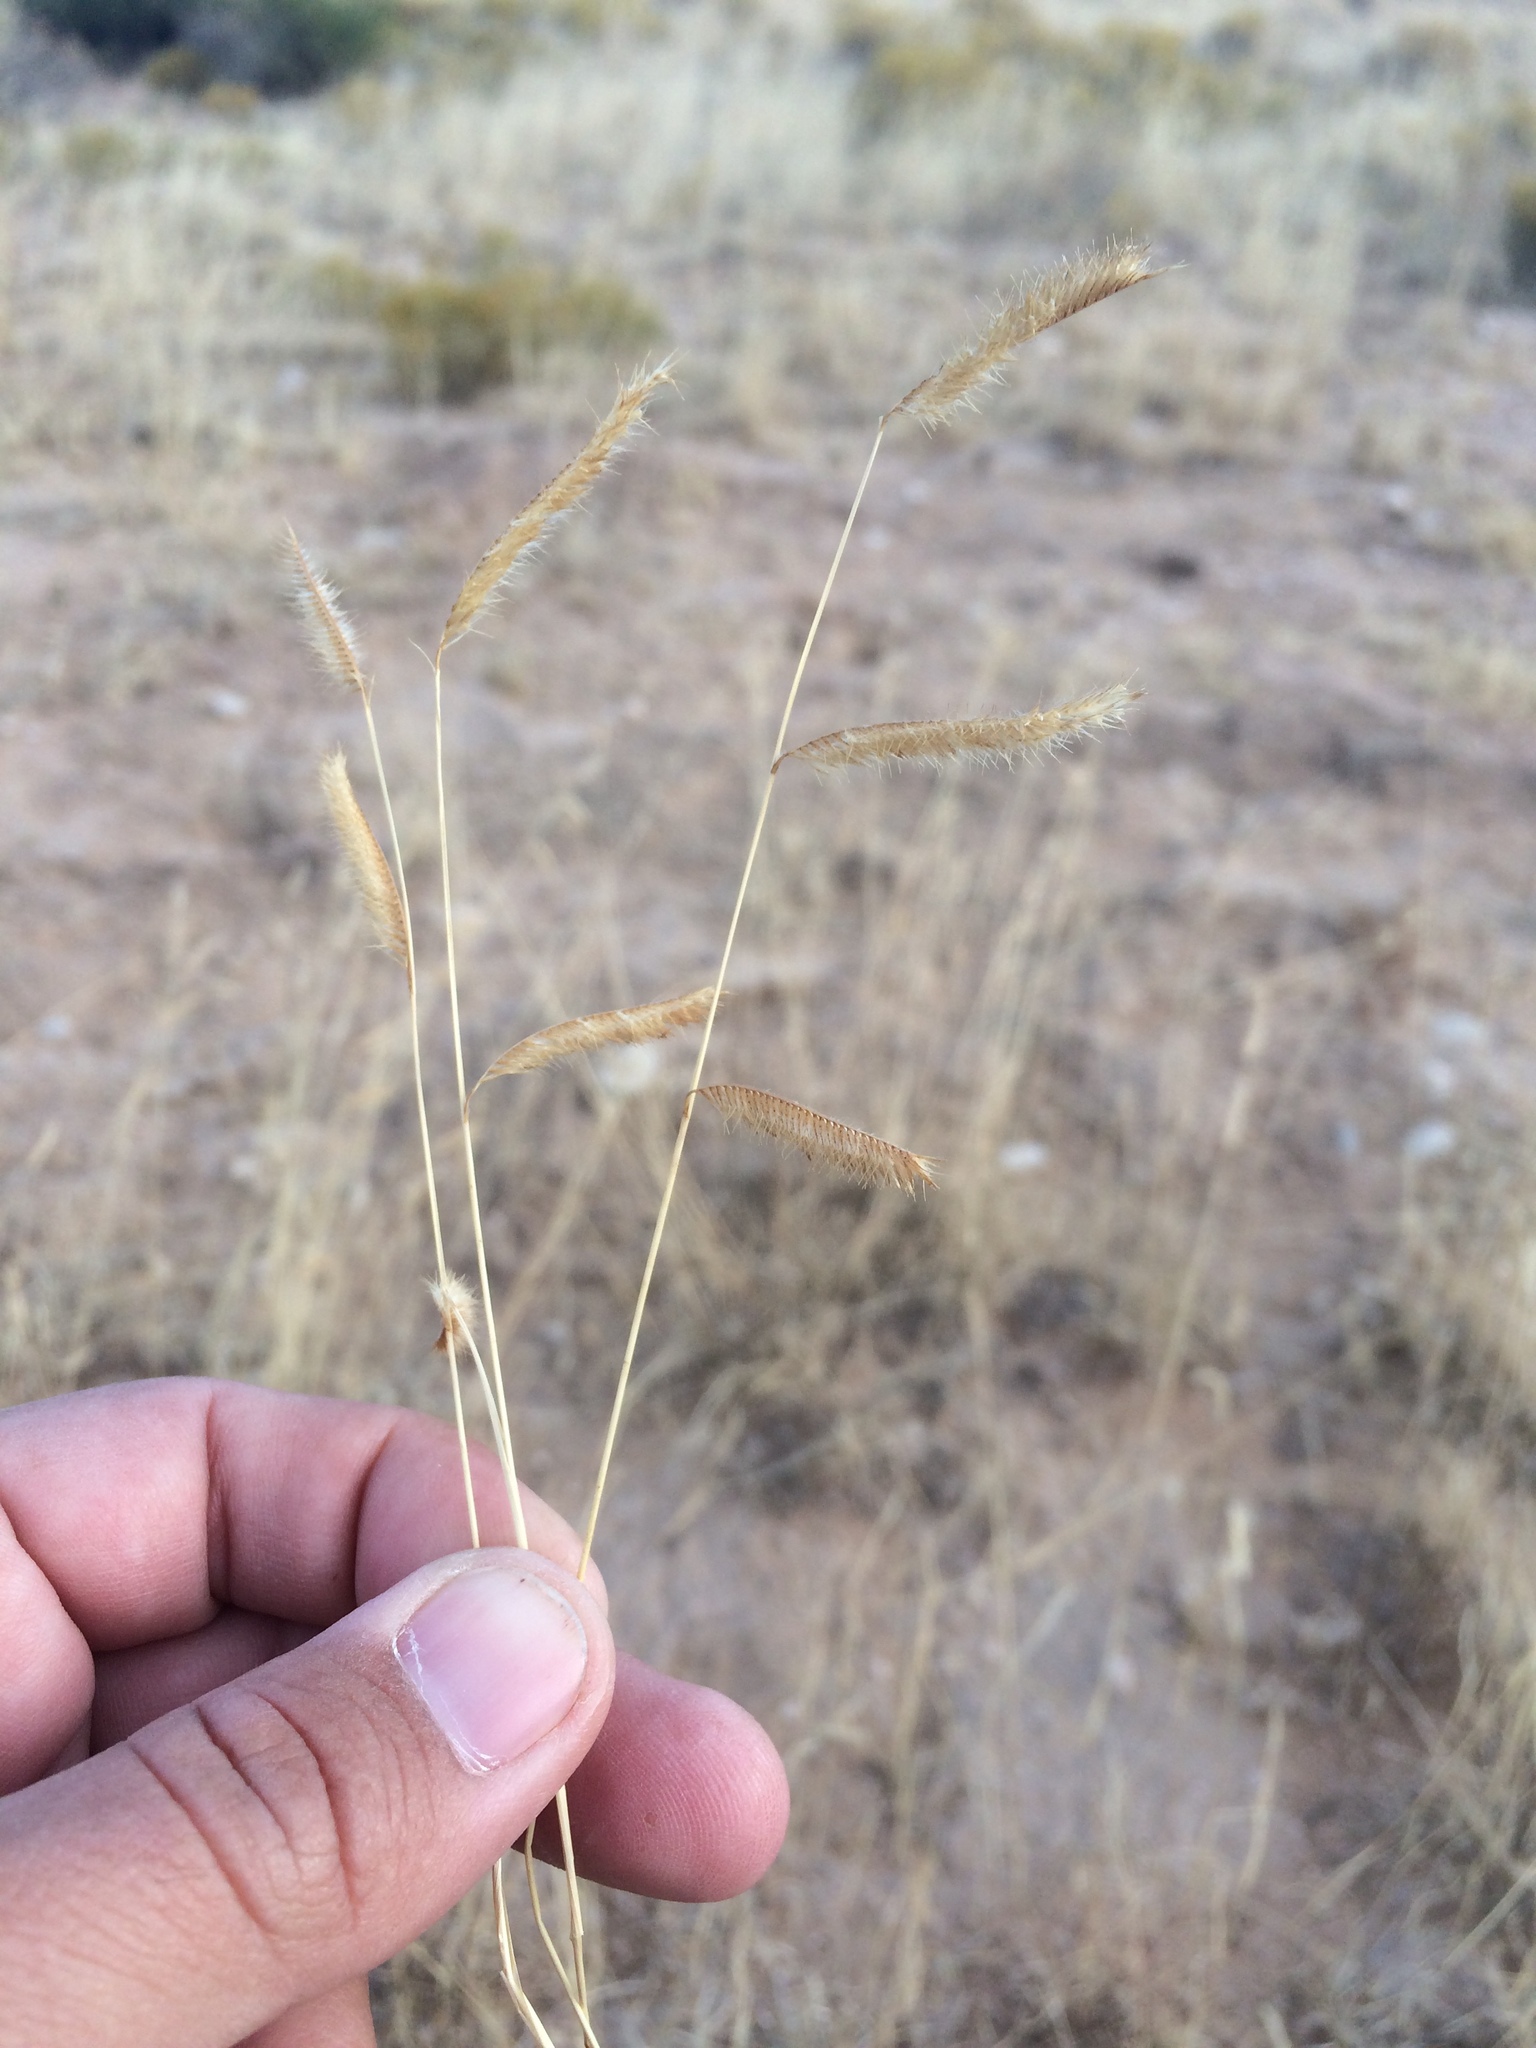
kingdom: Plantae
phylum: Tracheophyta
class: Liliopsida
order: Poales
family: Poaceae
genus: Bouteloua
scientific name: Bouteloua gracilis
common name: Blue grama
